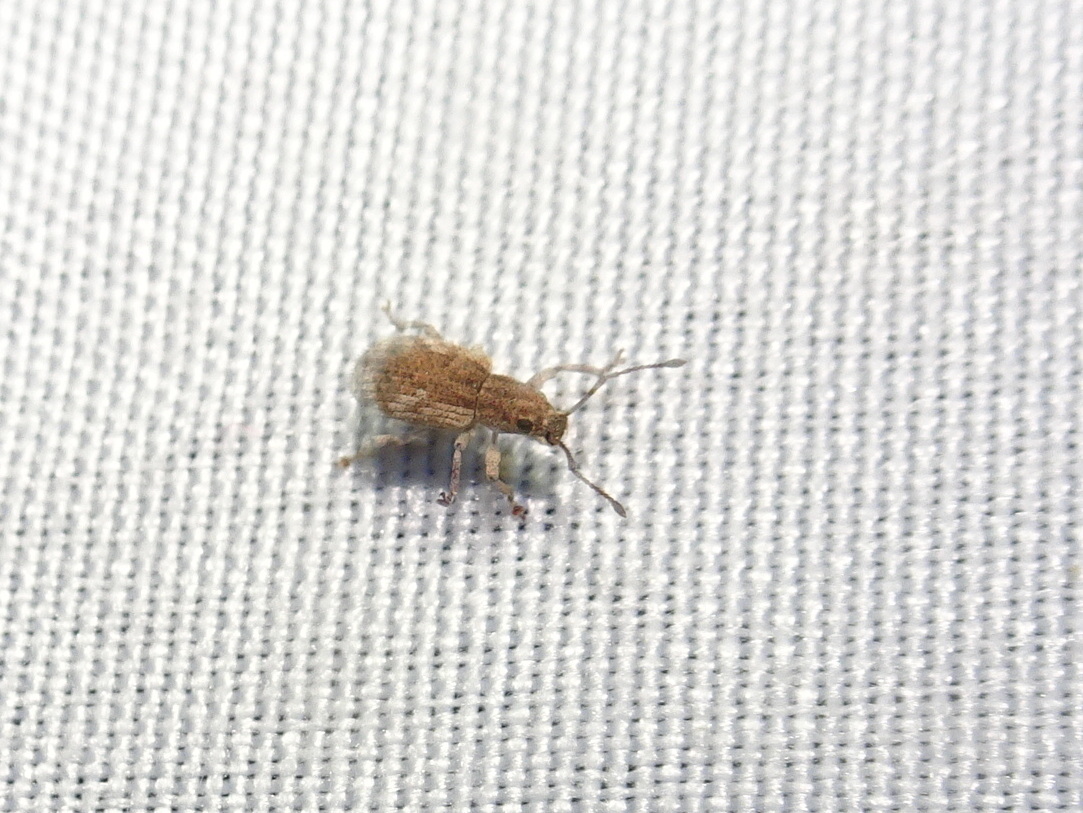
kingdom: Animalia
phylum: Arthropoda
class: Insecta
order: Coleoptera
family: Curculionidae
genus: Pseudoedophrys
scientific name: Pseudoedophrys hilleri
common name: Weevil
